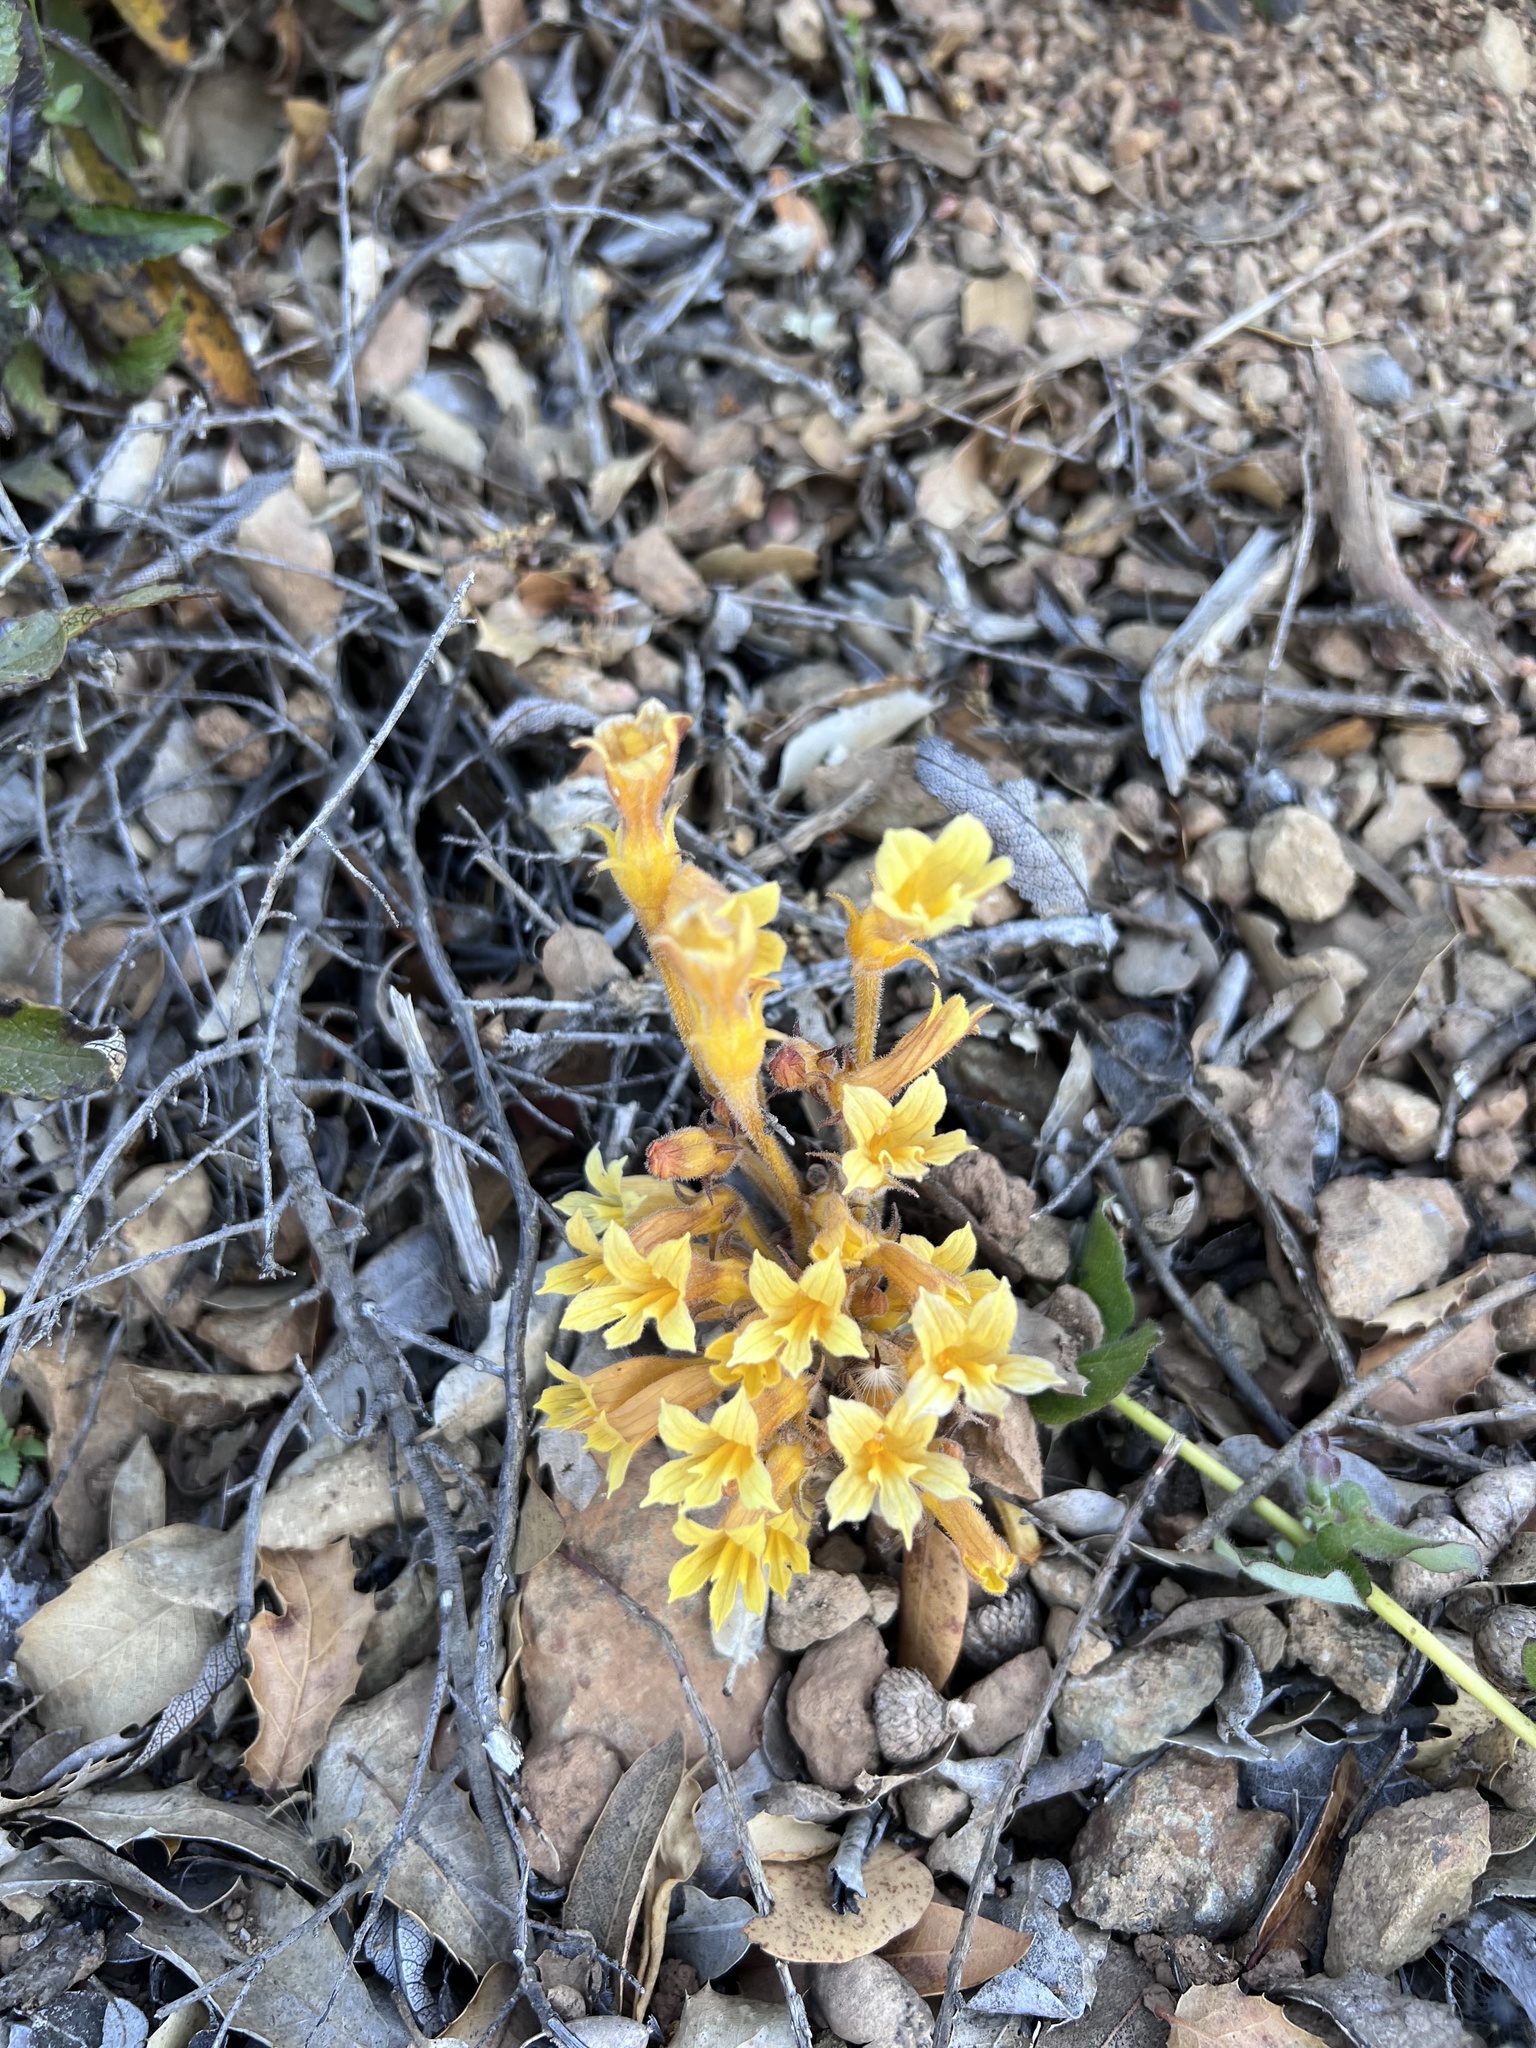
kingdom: Plantae
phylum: Tracheophyta
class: Magnoliopsida
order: Lamiales
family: Orobanchaceae
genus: Aphyllon
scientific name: Aphyllon franciscanum
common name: San francisco broomrape
